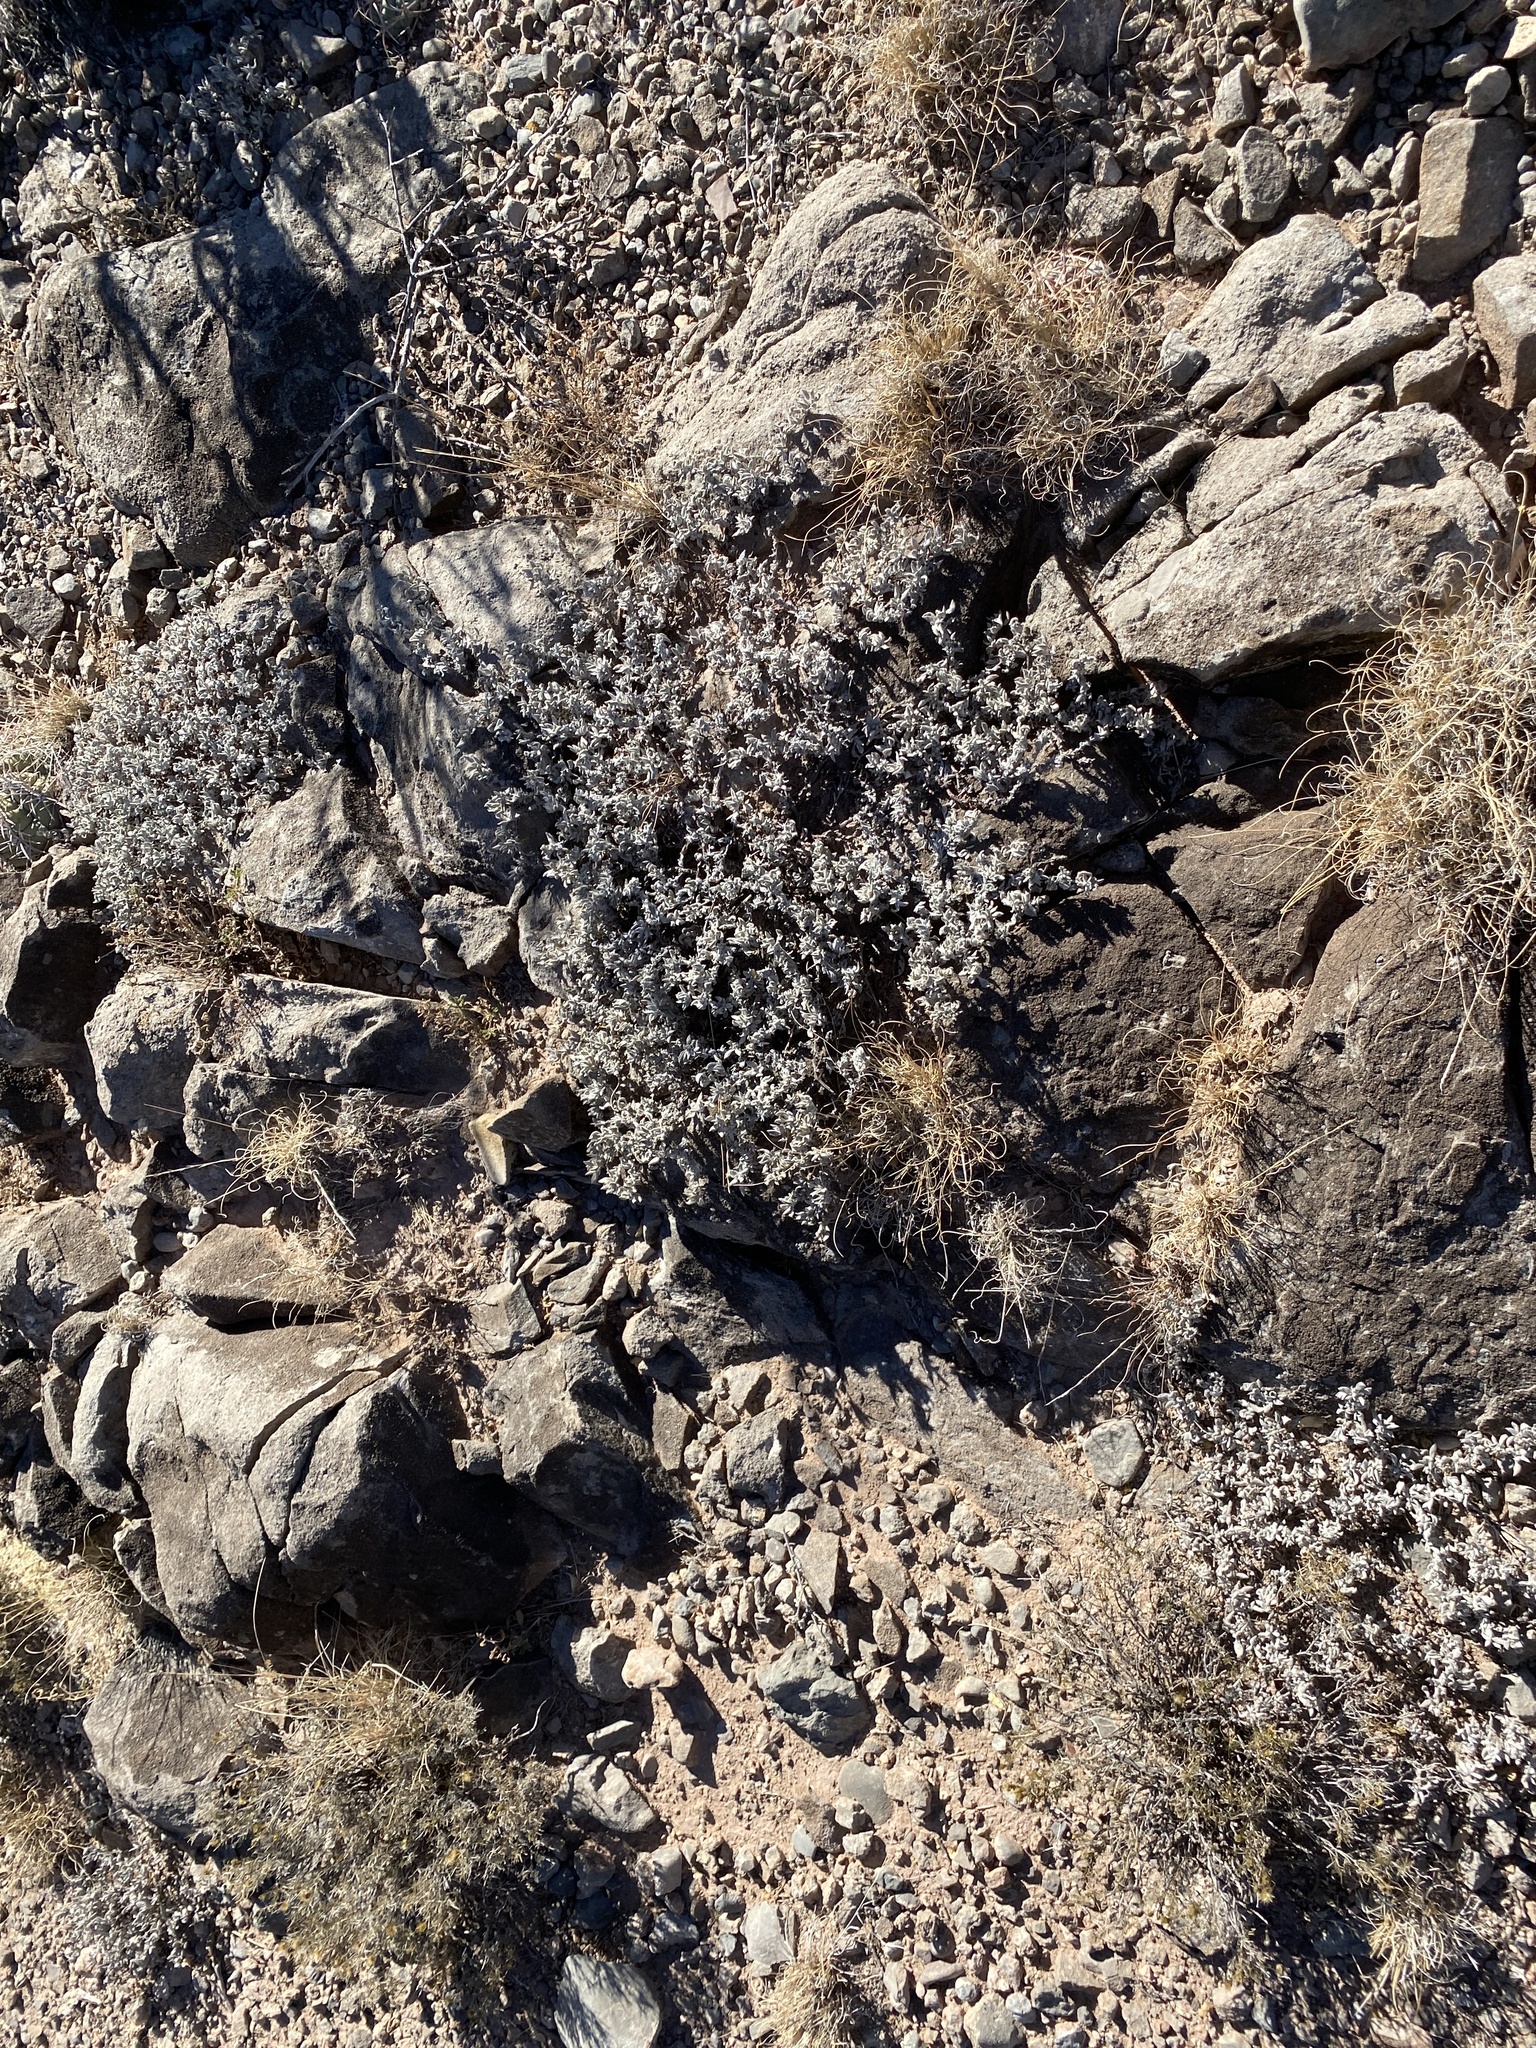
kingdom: Plantae
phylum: Tracheophyta
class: Magnoliopsida
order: Boraginales
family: Ehretiaceae
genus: Tiquilia
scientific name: Tiquilia canescens
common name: Hairy tiquilia
